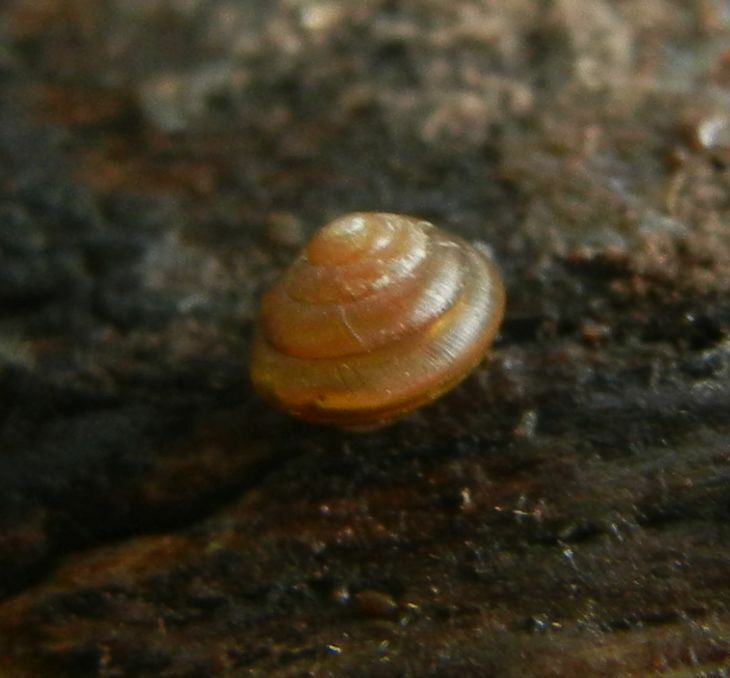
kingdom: Animalia
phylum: Mollusca
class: Gastropoda
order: Stylommatophora
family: Euconulidae
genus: Euconulus
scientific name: Euconulus fulvus
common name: Tawny glass snail
